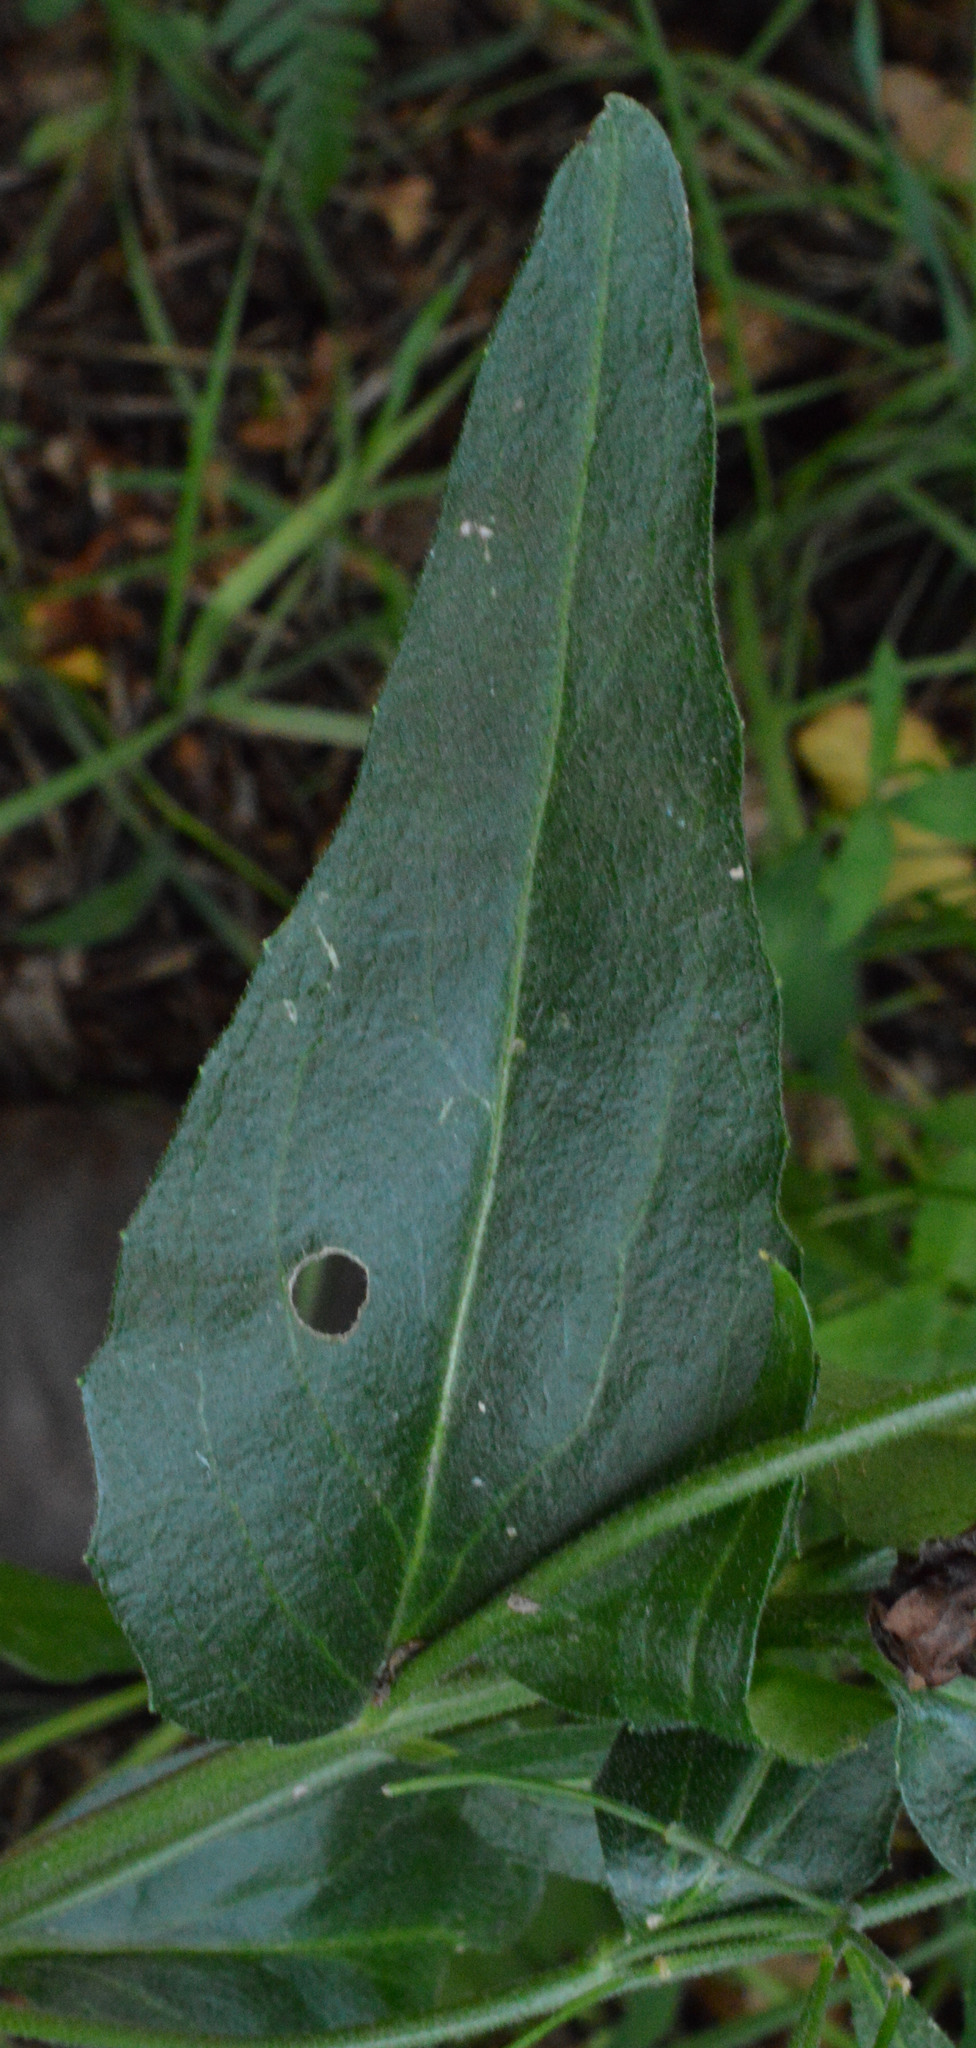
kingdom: Plantae
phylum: Tracheophyta
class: Magnoliopsida
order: Brassicales
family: Brassicaceae
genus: Hesperis
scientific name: Hesperis matronalis
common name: Dame's-violet
